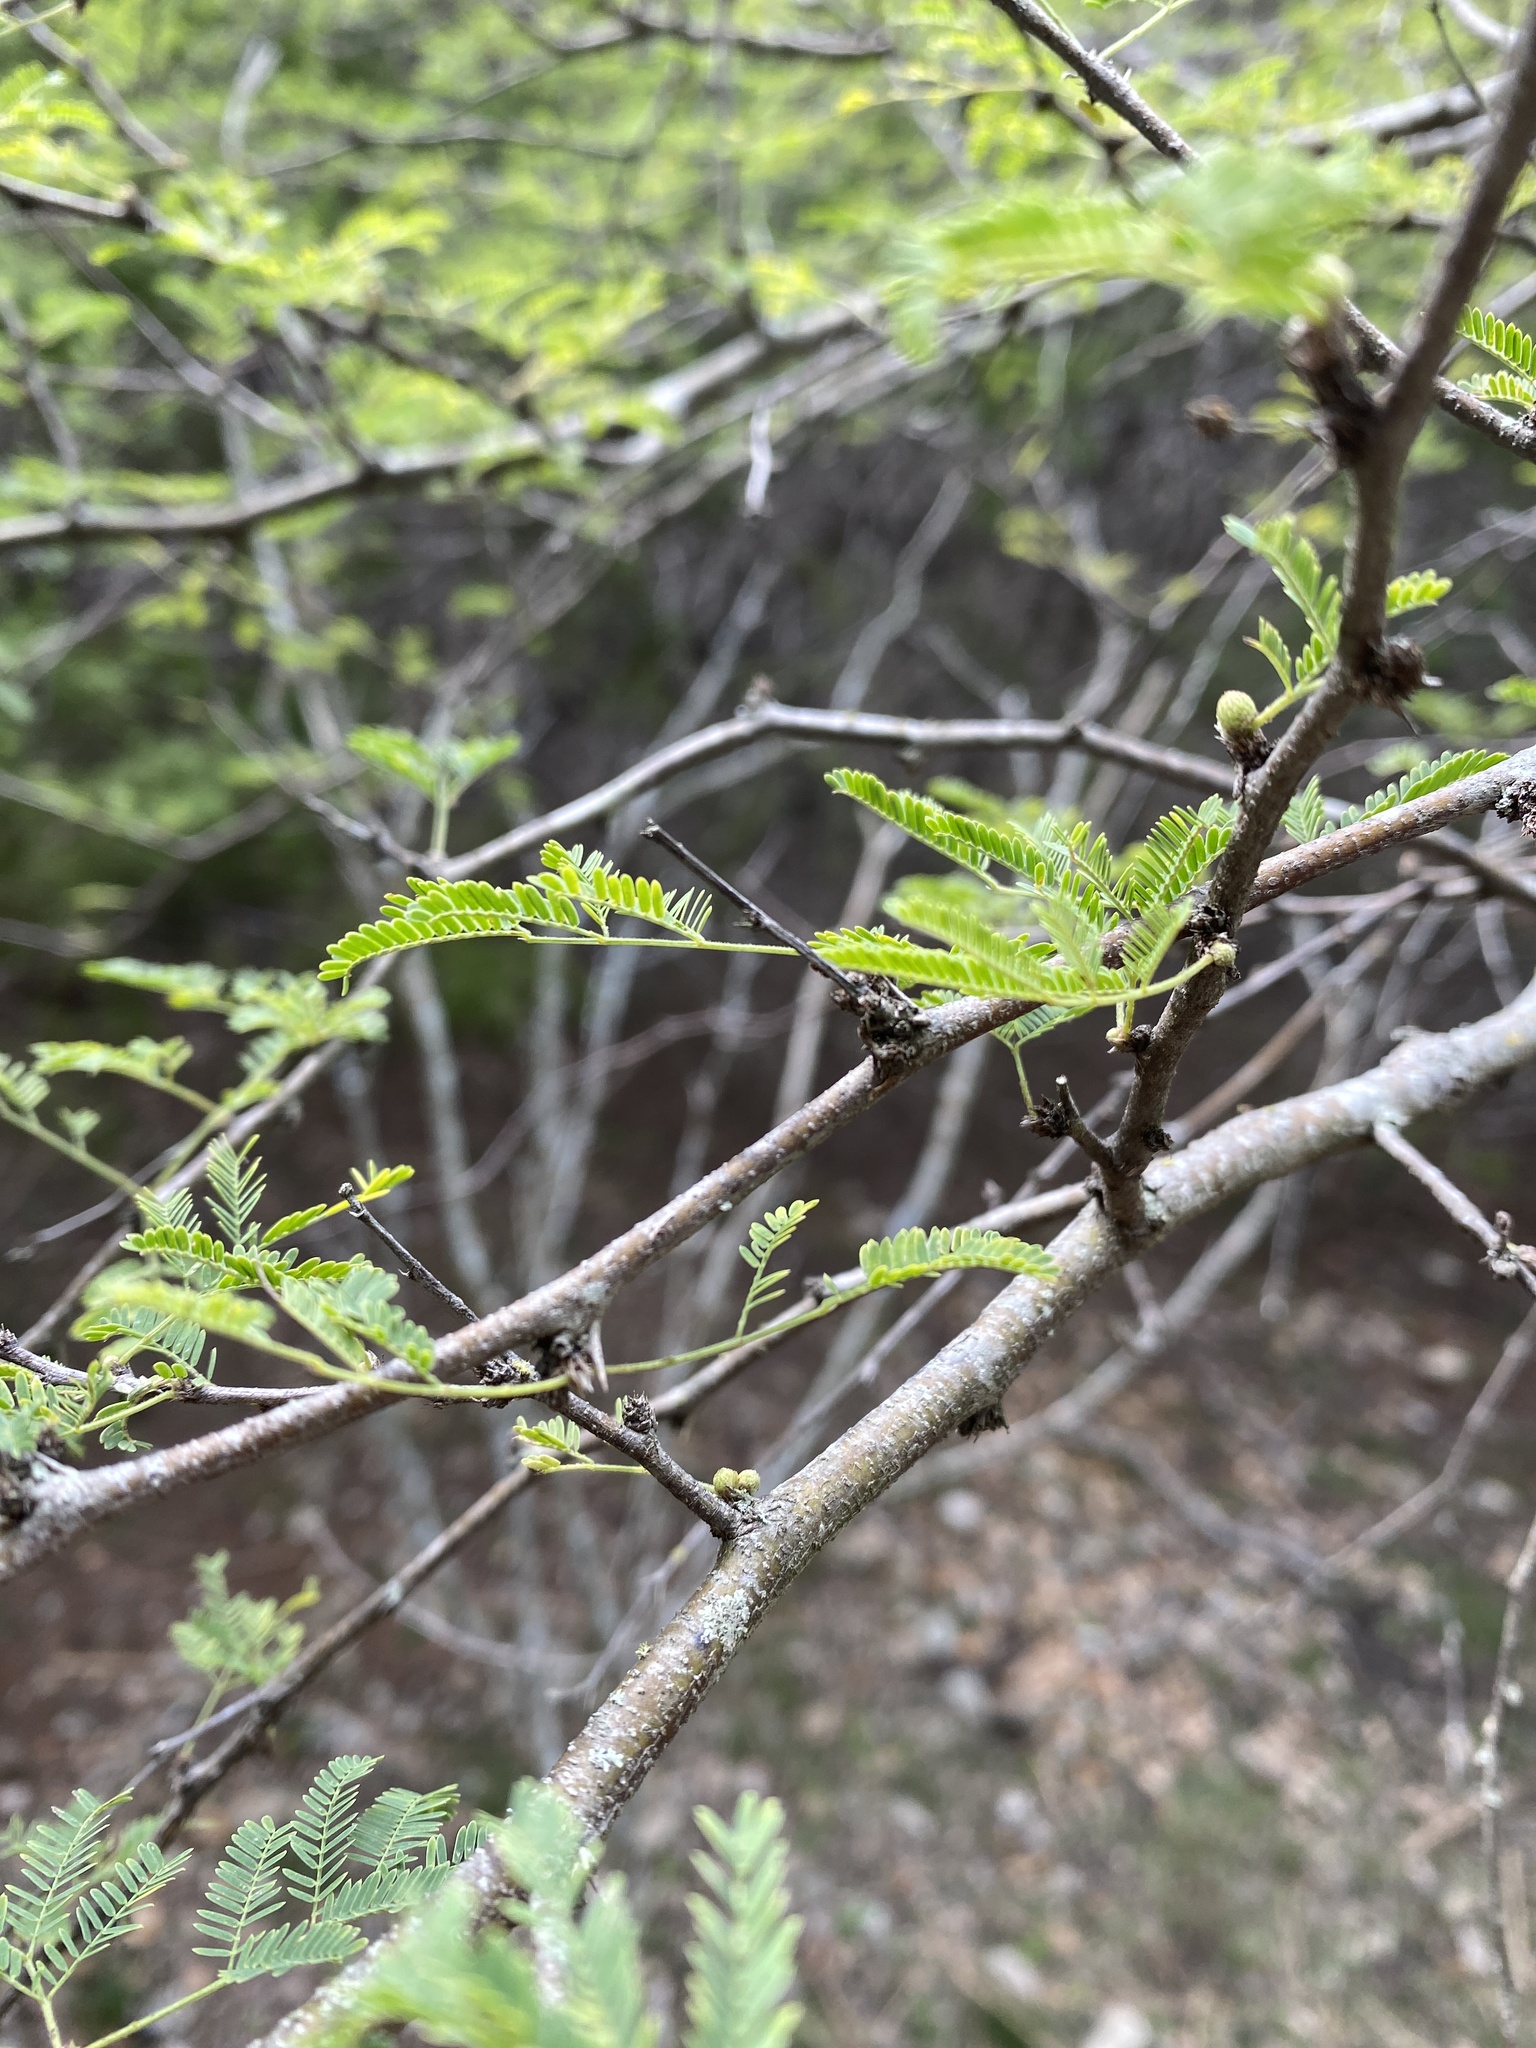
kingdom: Plantae
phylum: Tracheophyta
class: Magnoliopsida
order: Fabales
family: Fabaceae
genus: Vachellia
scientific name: Vachellia farnesiana
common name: Sweet acacia
